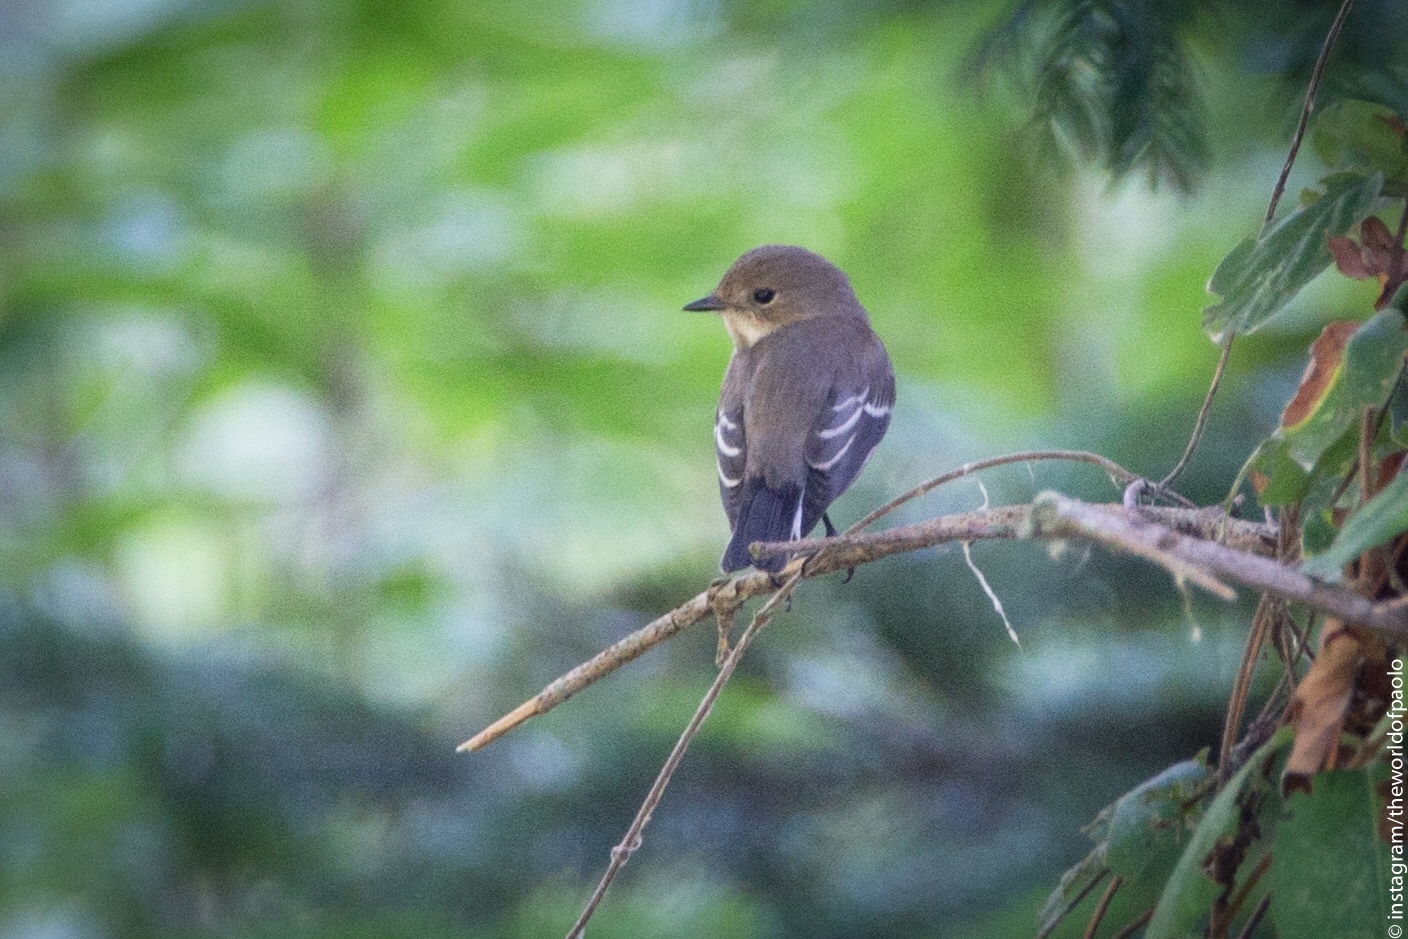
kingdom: Animalia
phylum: Chordata
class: Aves
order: Passeriformes
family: Muscicapidae
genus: Ficedula
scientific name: Ficedula hypoleuca
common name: European pied flycatcher
